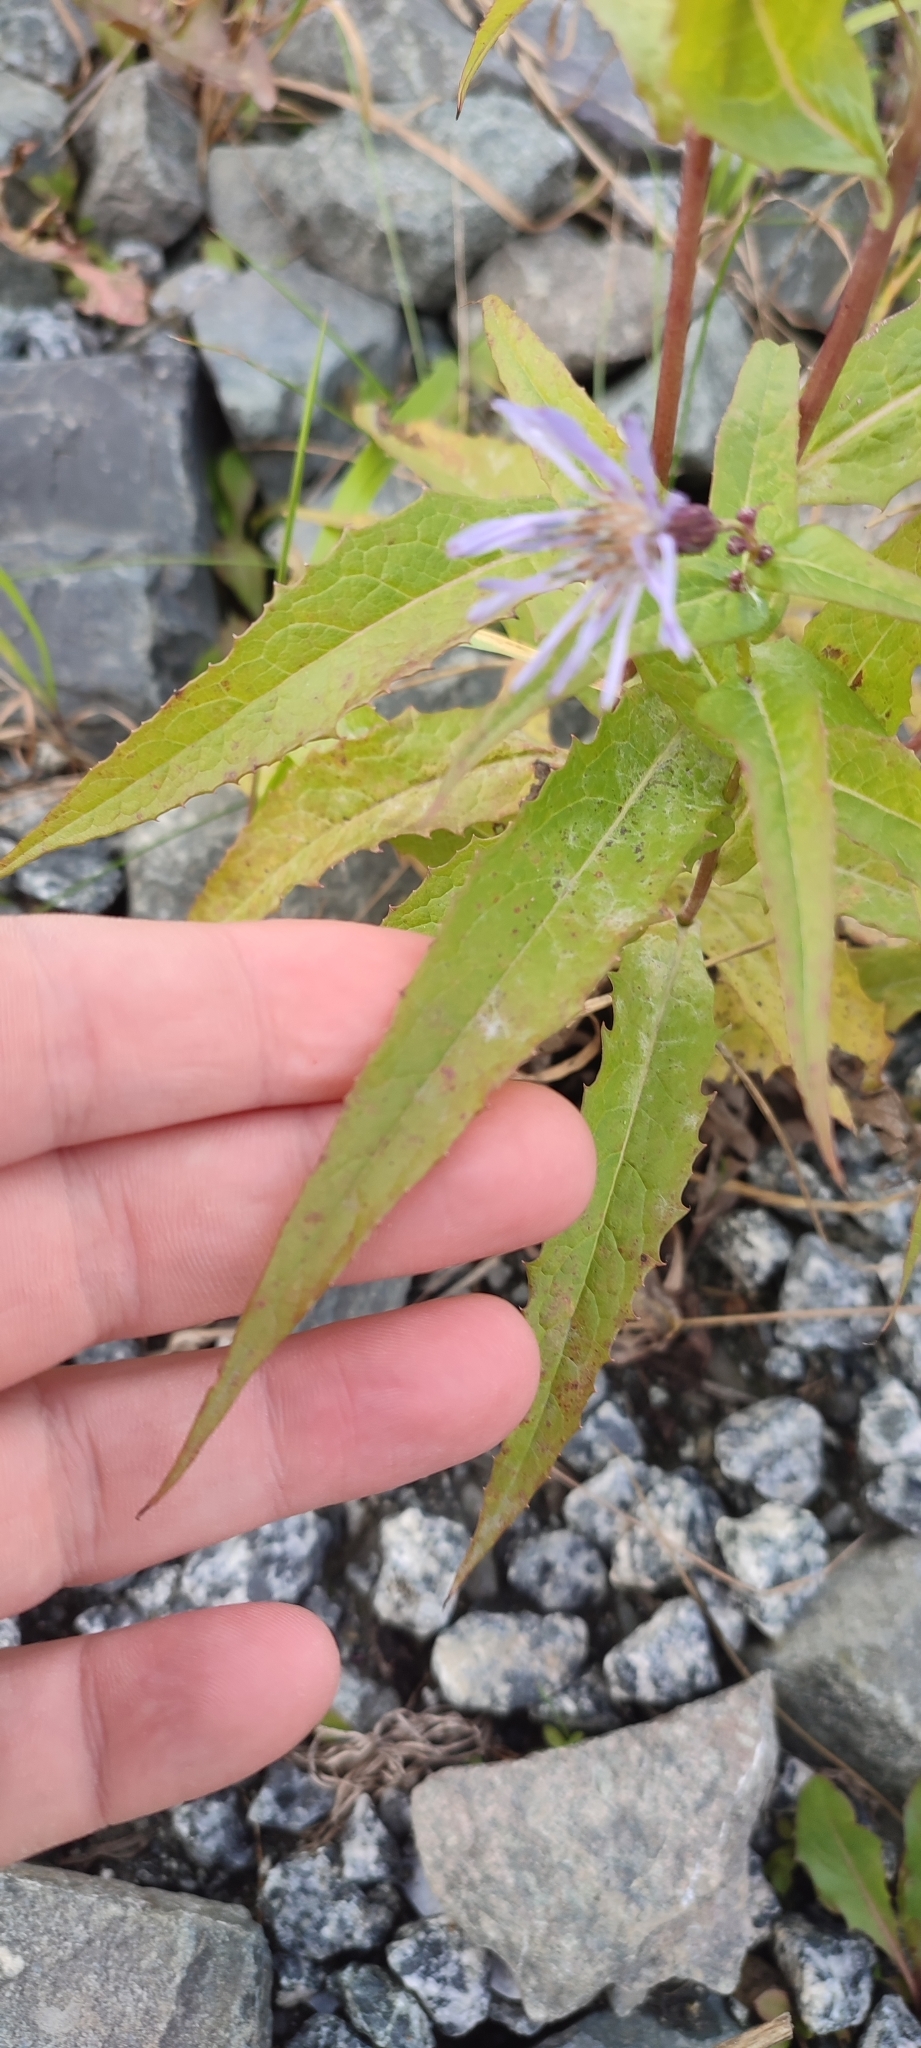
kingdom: Plantae
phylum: Tracheophyta
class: Magnoliopsida
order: Asterales
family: Asteraceae
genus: Lactuca
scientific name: Lactuca sibirica
